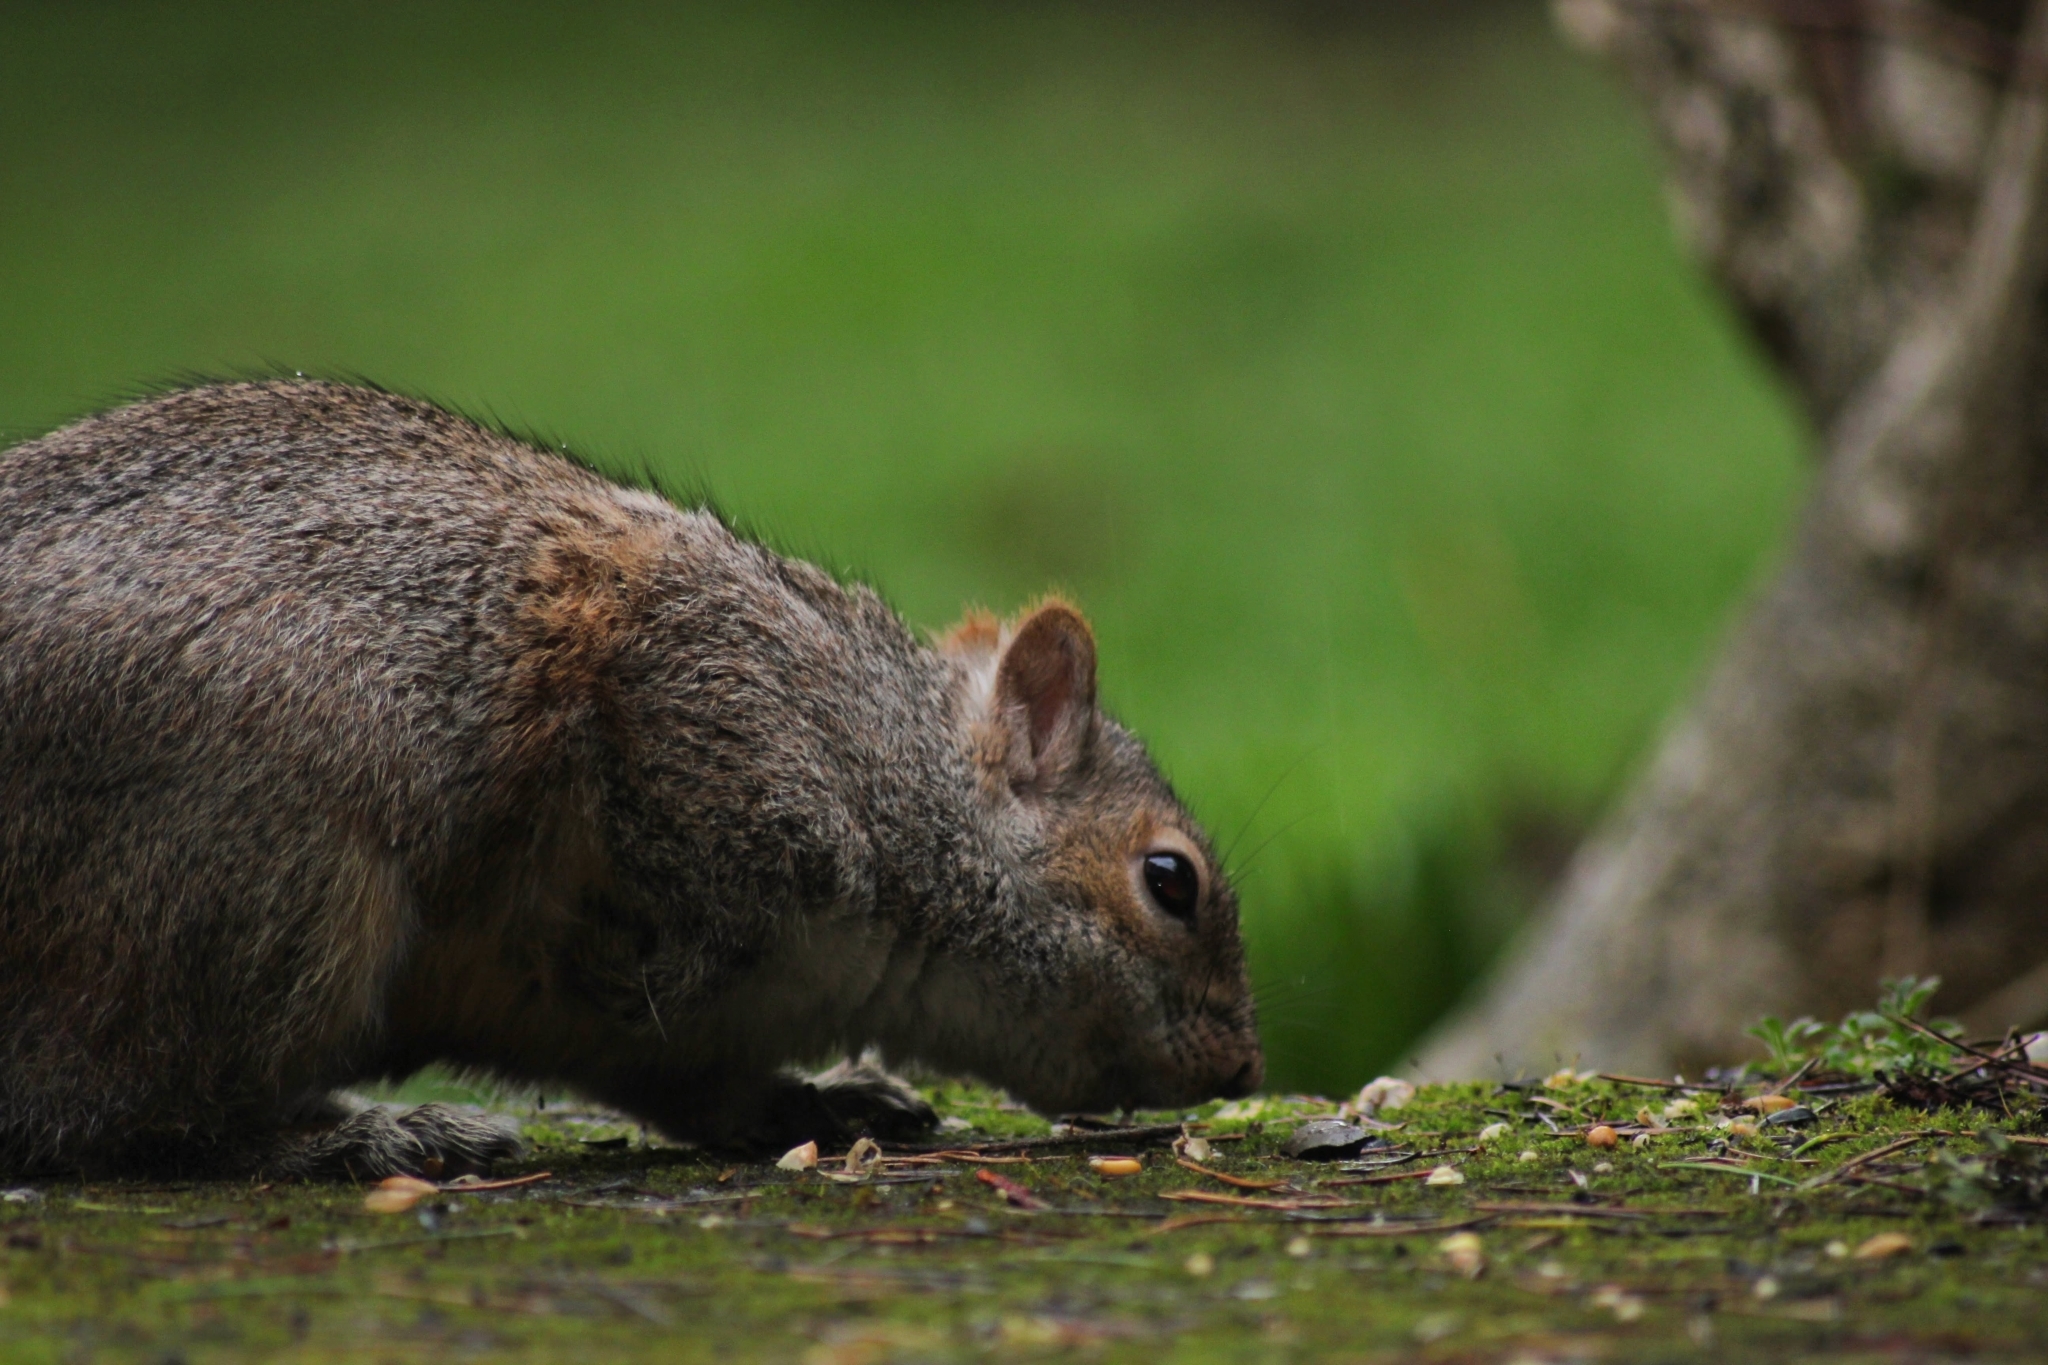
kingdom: Animalia
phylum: Chordata
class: Mammalia
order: Rodentia
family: Sciuridae
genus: Sciurus
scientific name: Sciurus carolinensis
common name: Eastern gray squirrel
